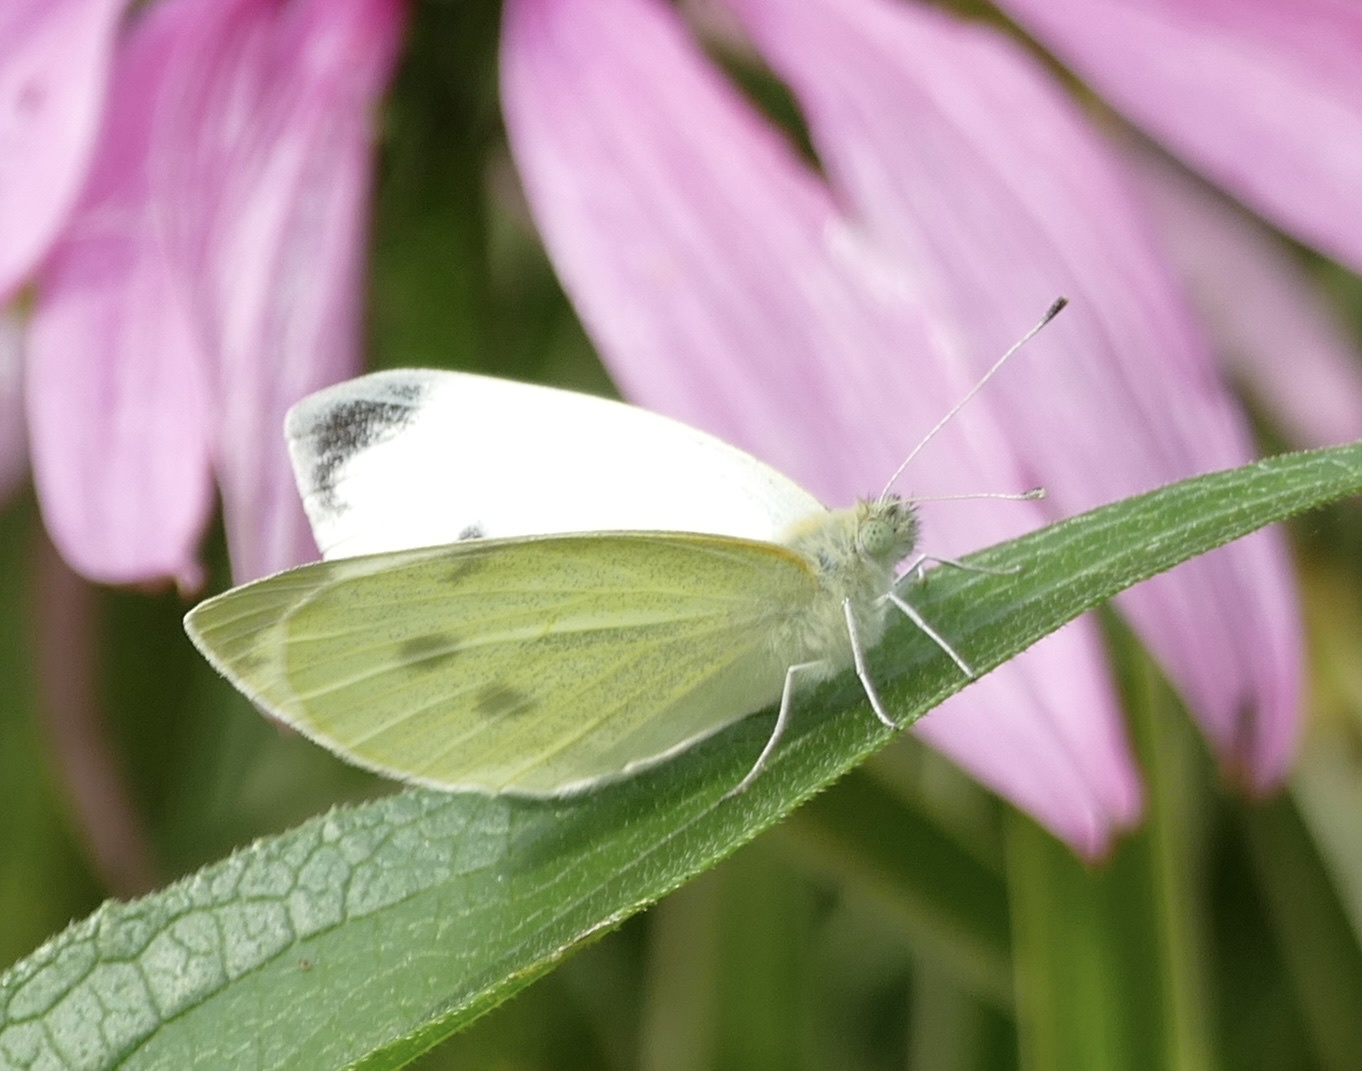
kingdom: Animalia
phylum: Arthropoda
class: Insecta
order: Lepidoptera
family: Pieridae
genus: Pieris
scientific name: Pieris rapae
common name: Small white
